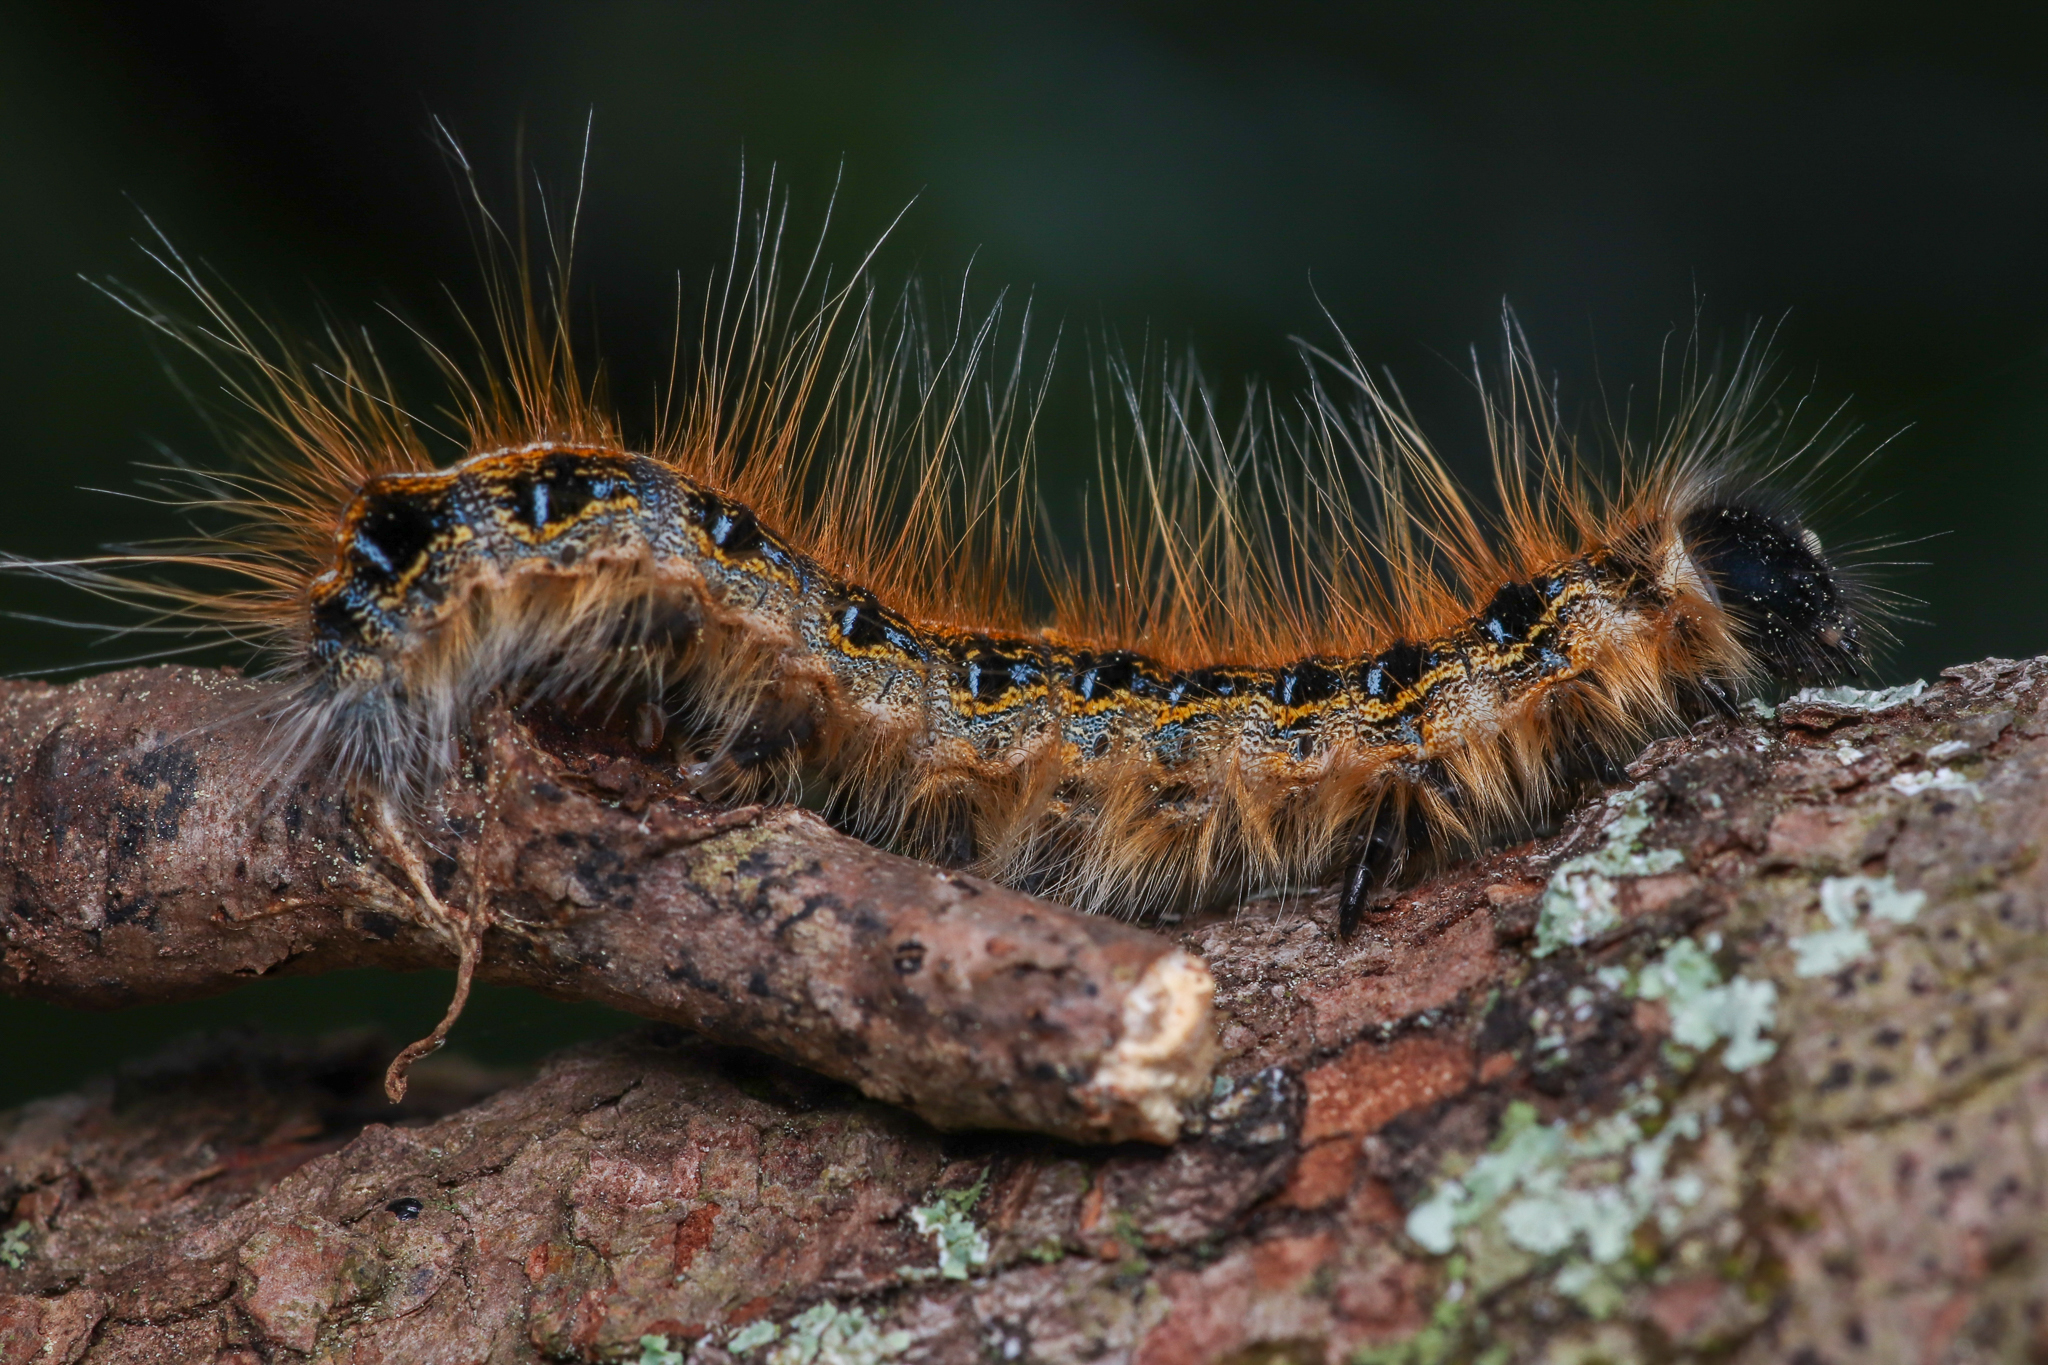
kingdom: Animalia
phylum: Arthropoda
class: Insecta
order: Lepidoptera
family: Lasiocampidae
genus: Malacosoma
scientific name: Malacosoma americana
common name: Eastern tent caterpillar moth
